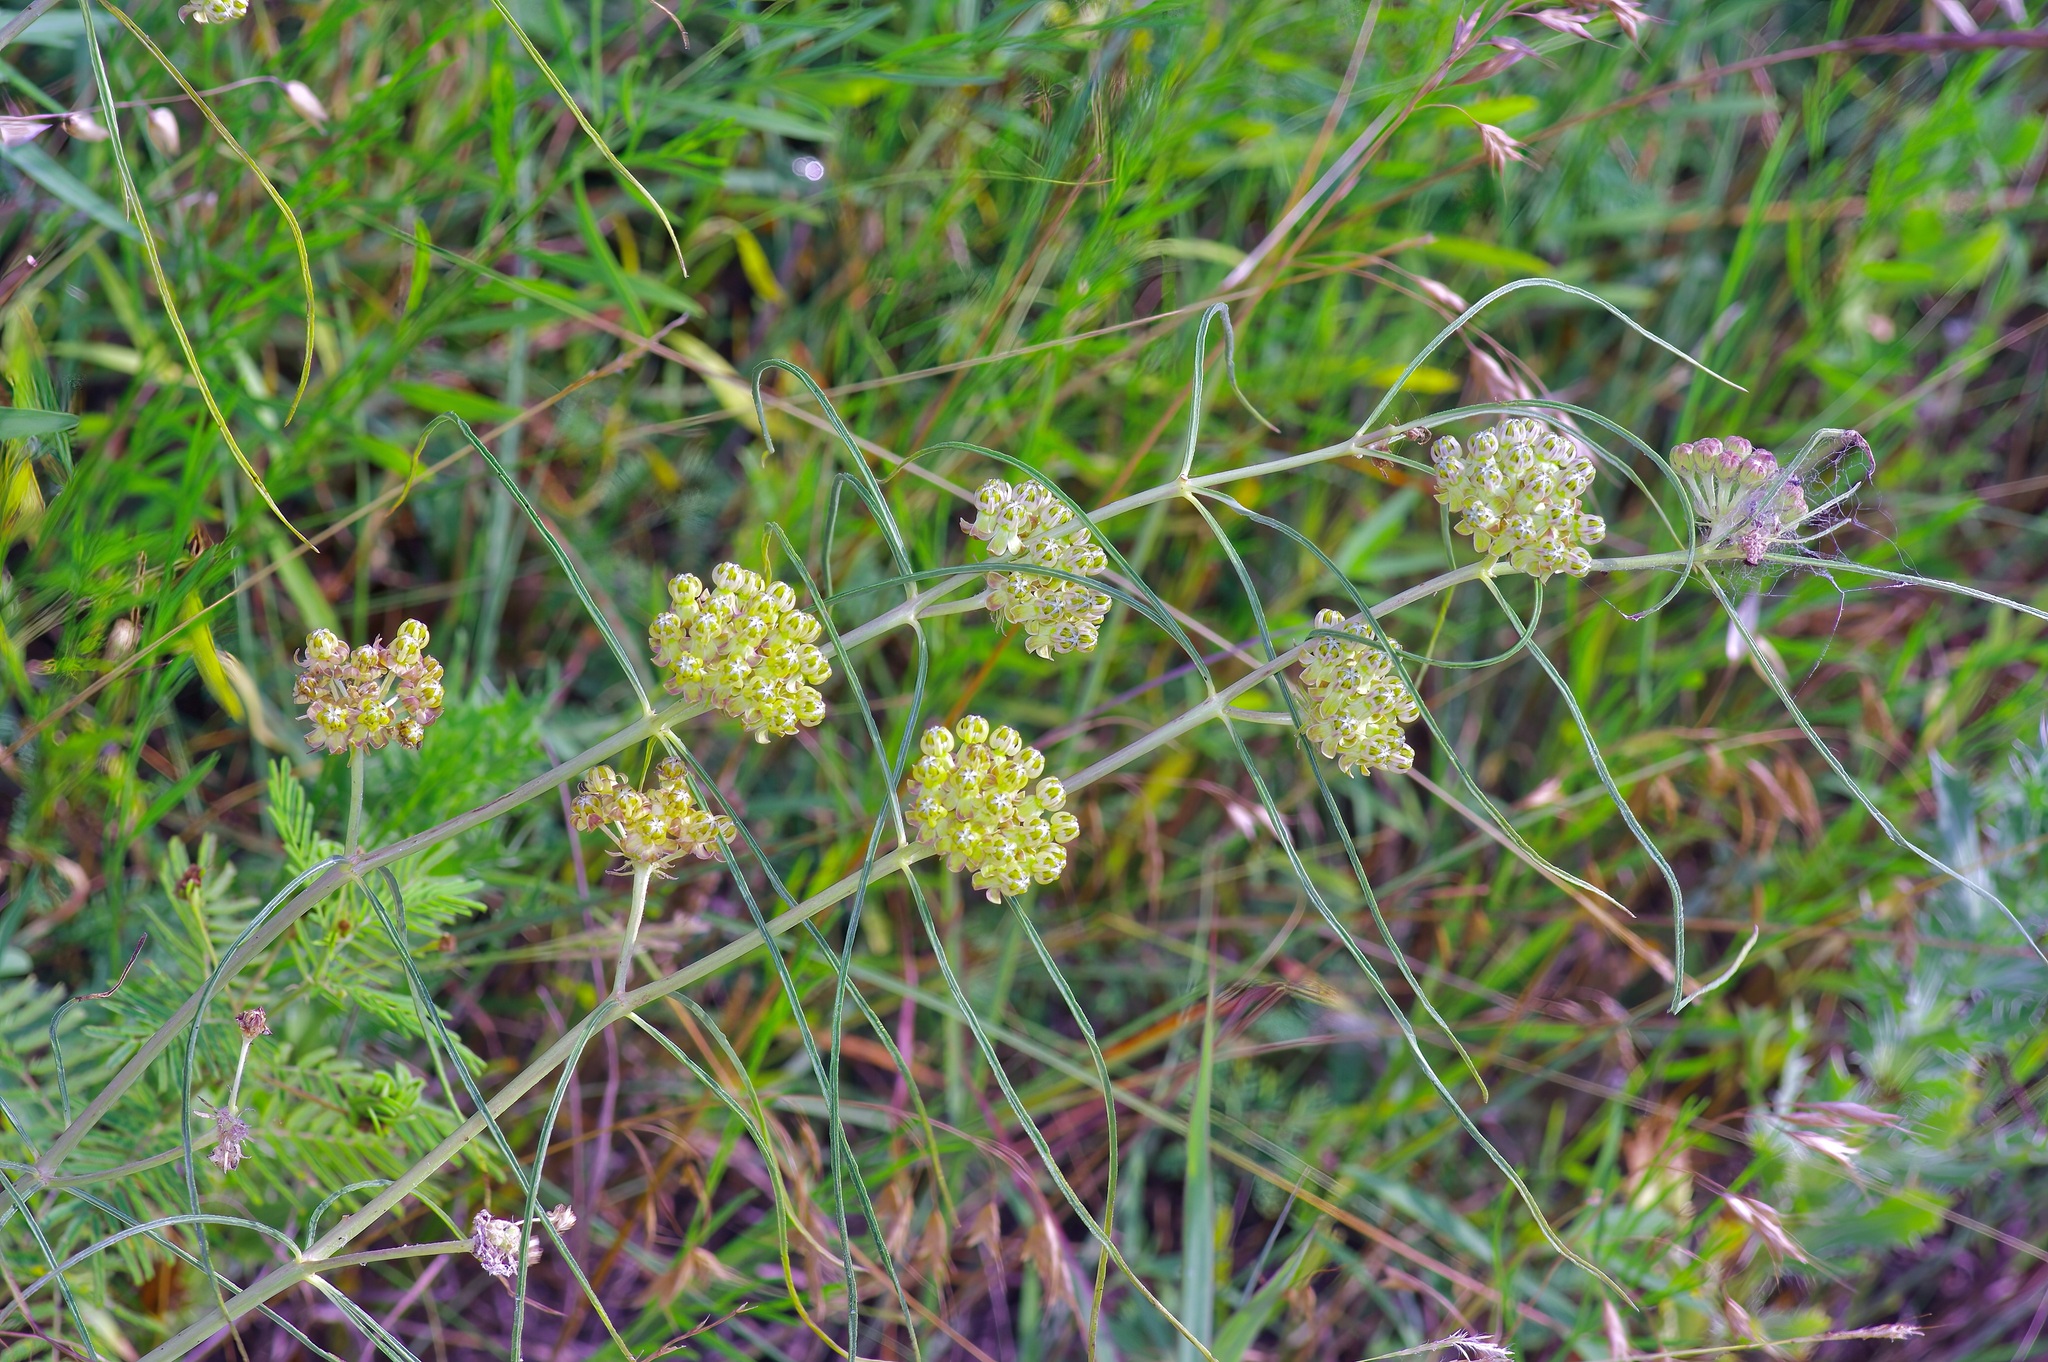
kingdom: Plantae
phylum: Tracheophyta
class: Magnoliopsida
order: Gentianales
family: Apocynaceae
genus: Asclepias
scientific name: Asclepias engelmanniana
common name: Engelmann's milkweed
